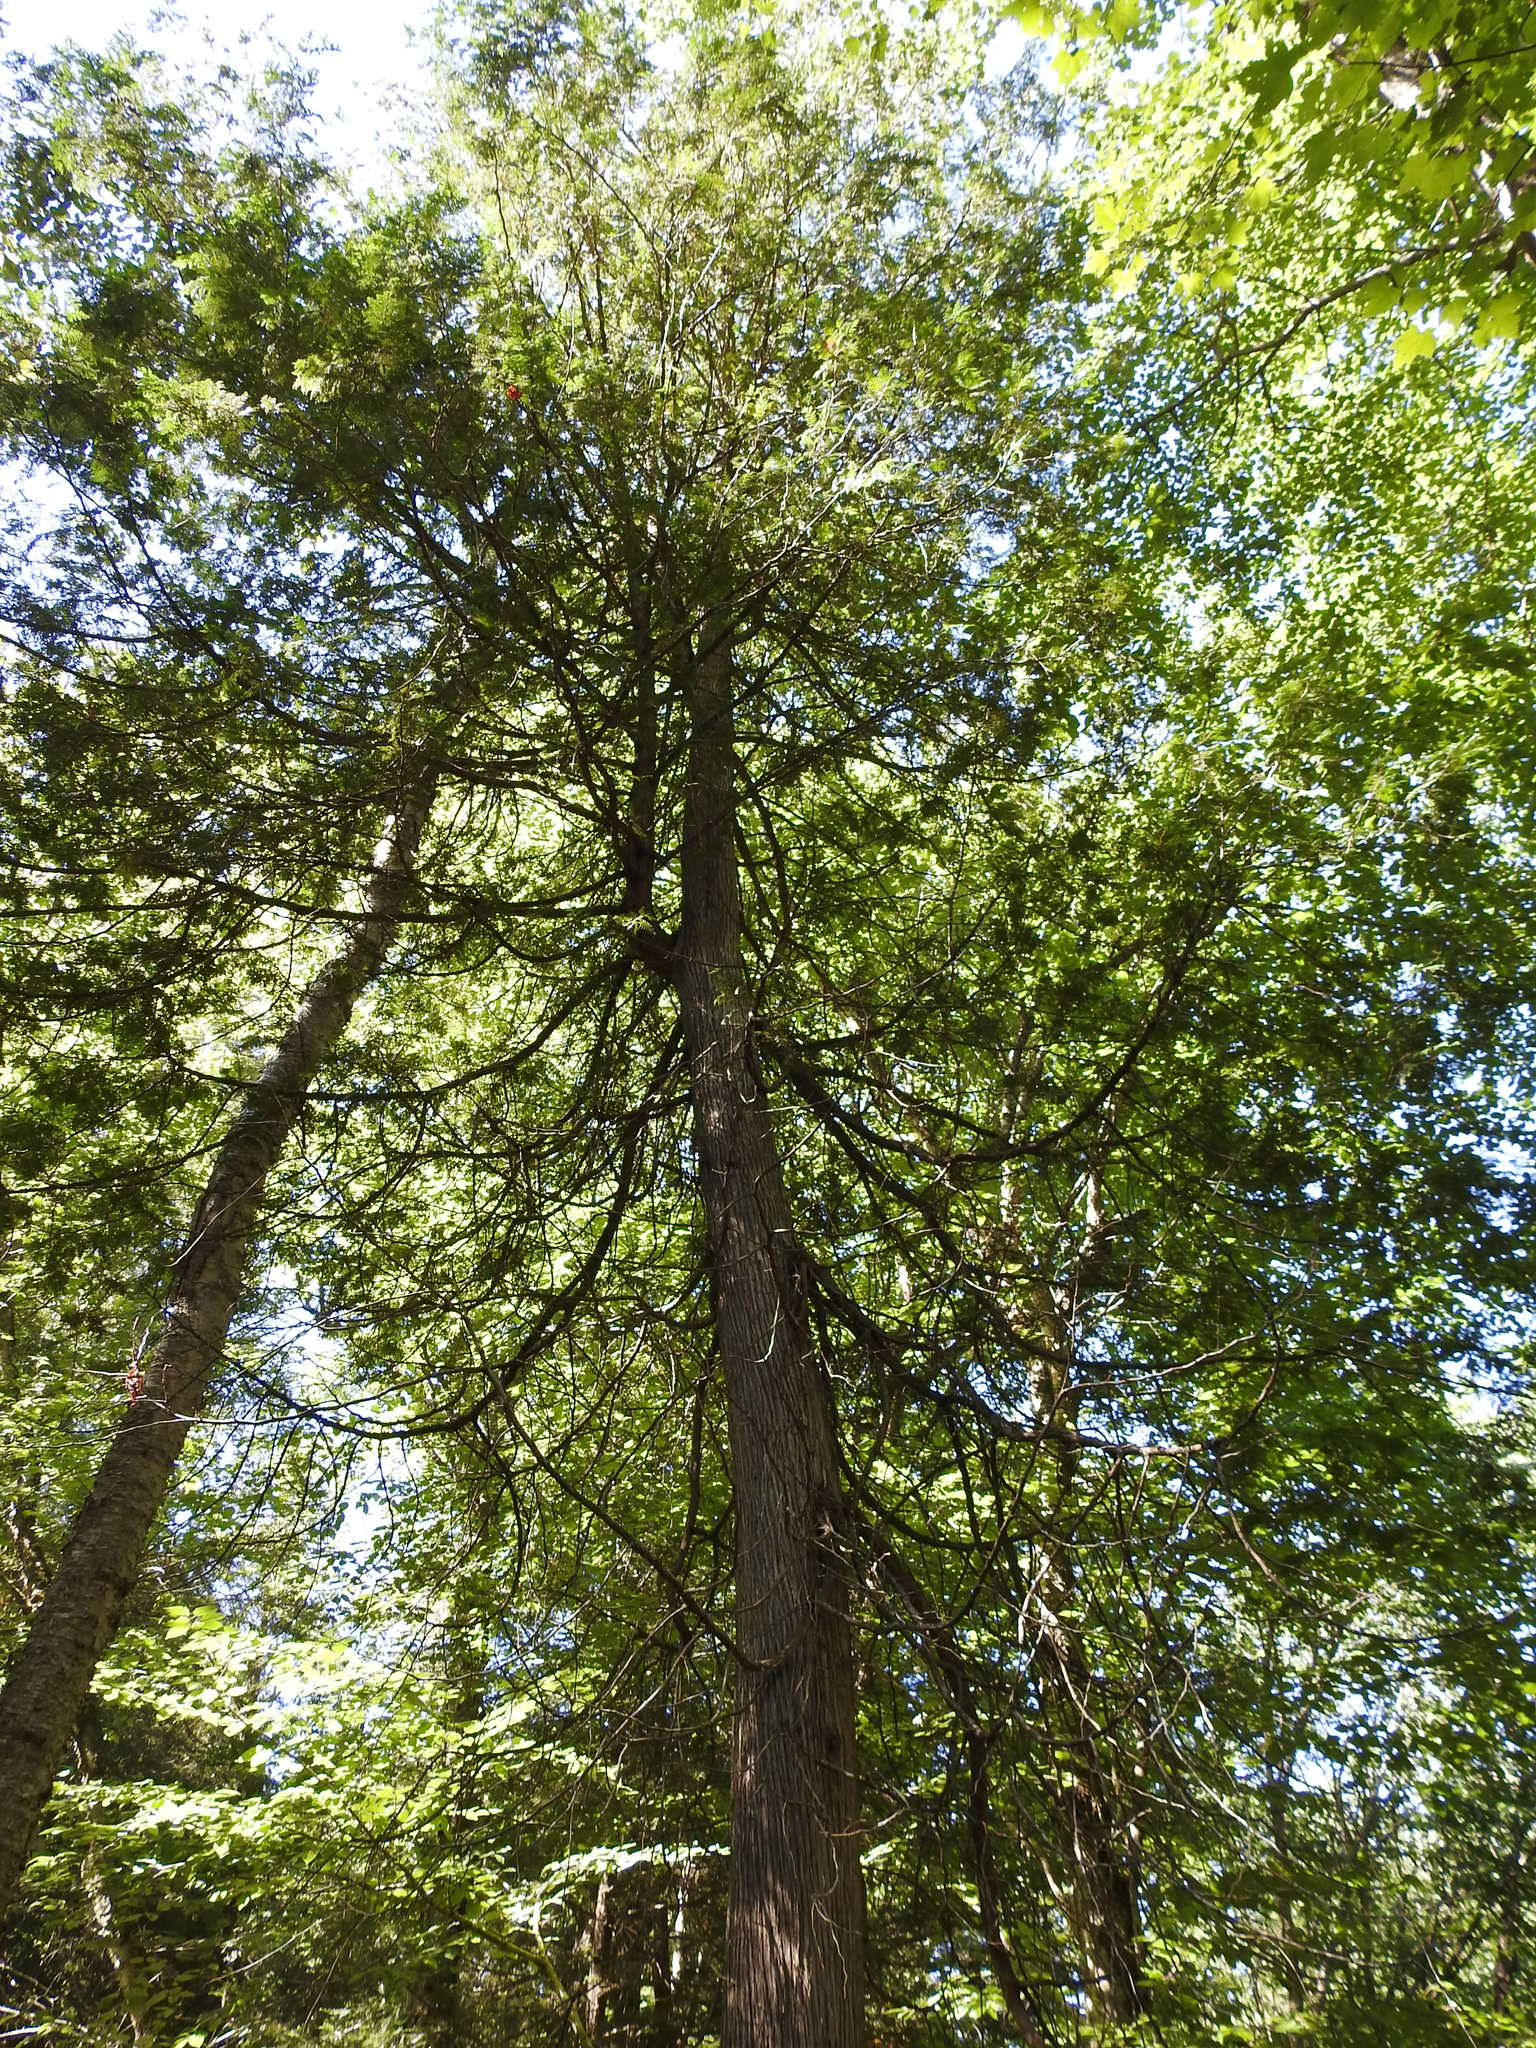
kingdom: Plantae
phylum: Tracheophyta
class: Pinopsida
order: Pinales
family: Cupressaceae
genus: Thuja
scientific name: Thuja occidentalis
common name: Northern white-cedar
